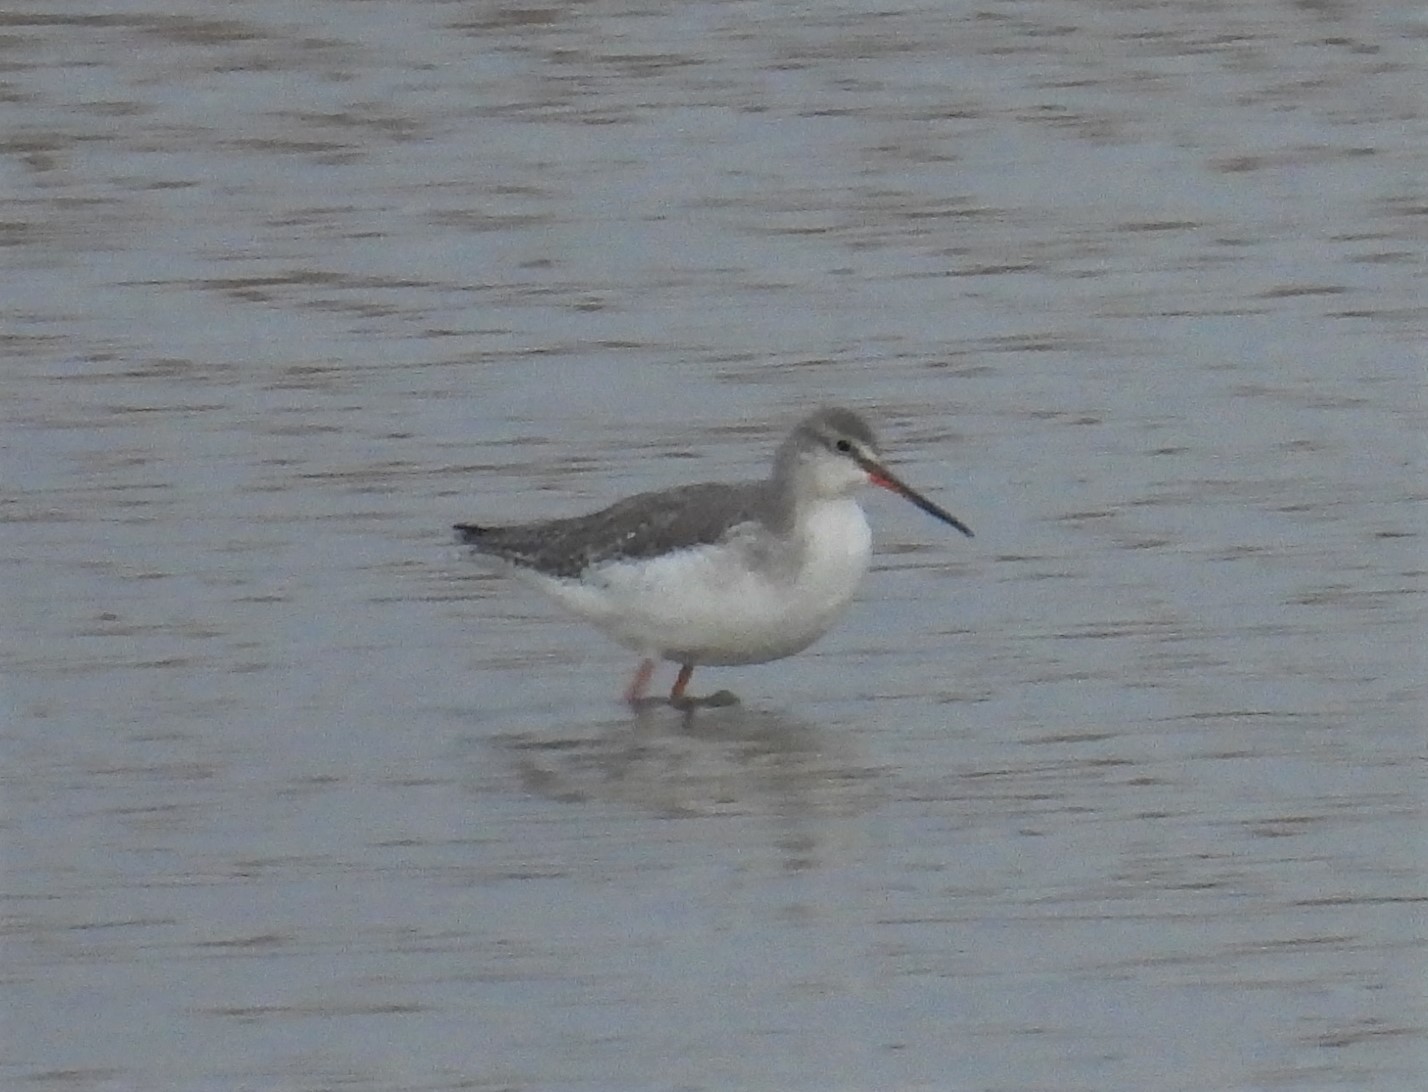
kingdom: Animalia
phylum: Chordata
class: Aves
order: Charadriiformes
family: Scolopacidae
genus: Tringa
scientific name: Tringa erythropus
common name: Spotted redshank
